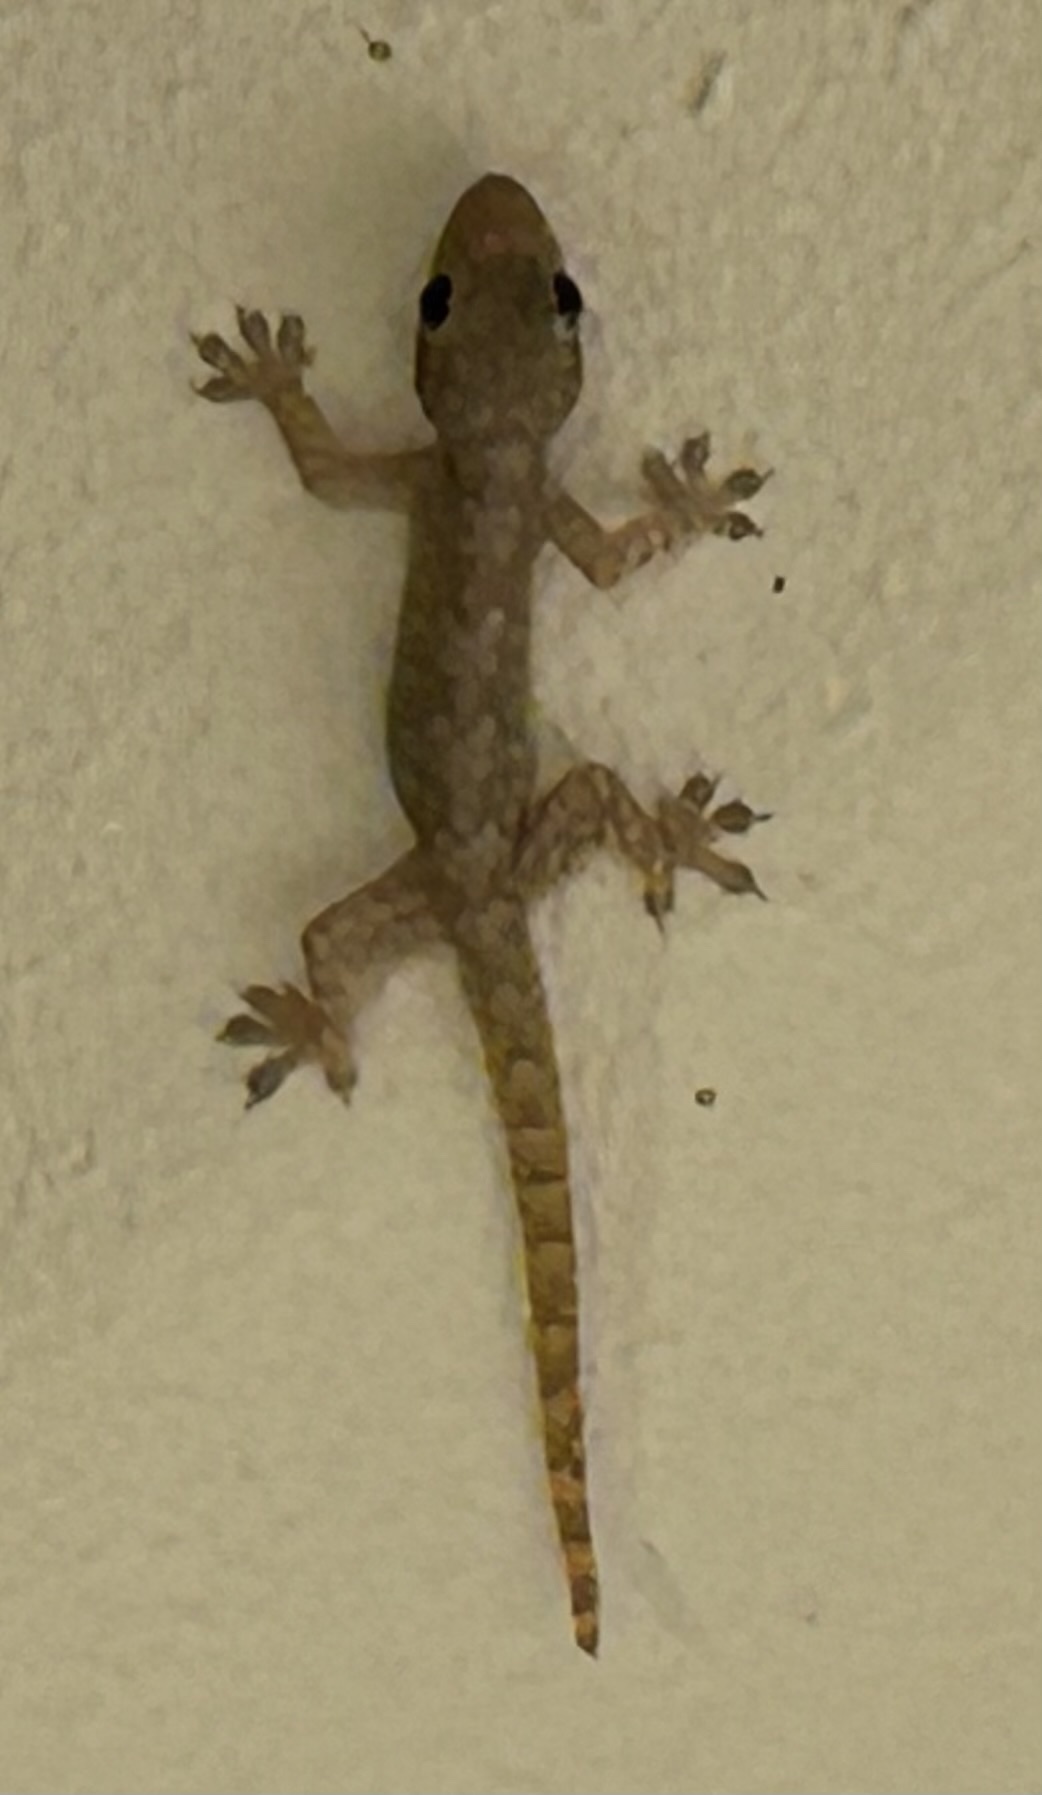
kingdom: Animalia
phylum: Chordata
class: Squamata
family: Gekkonidae
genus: Hemidactylus
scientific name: Hemidactylus platyurus
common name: Flat-tailed house gecko
